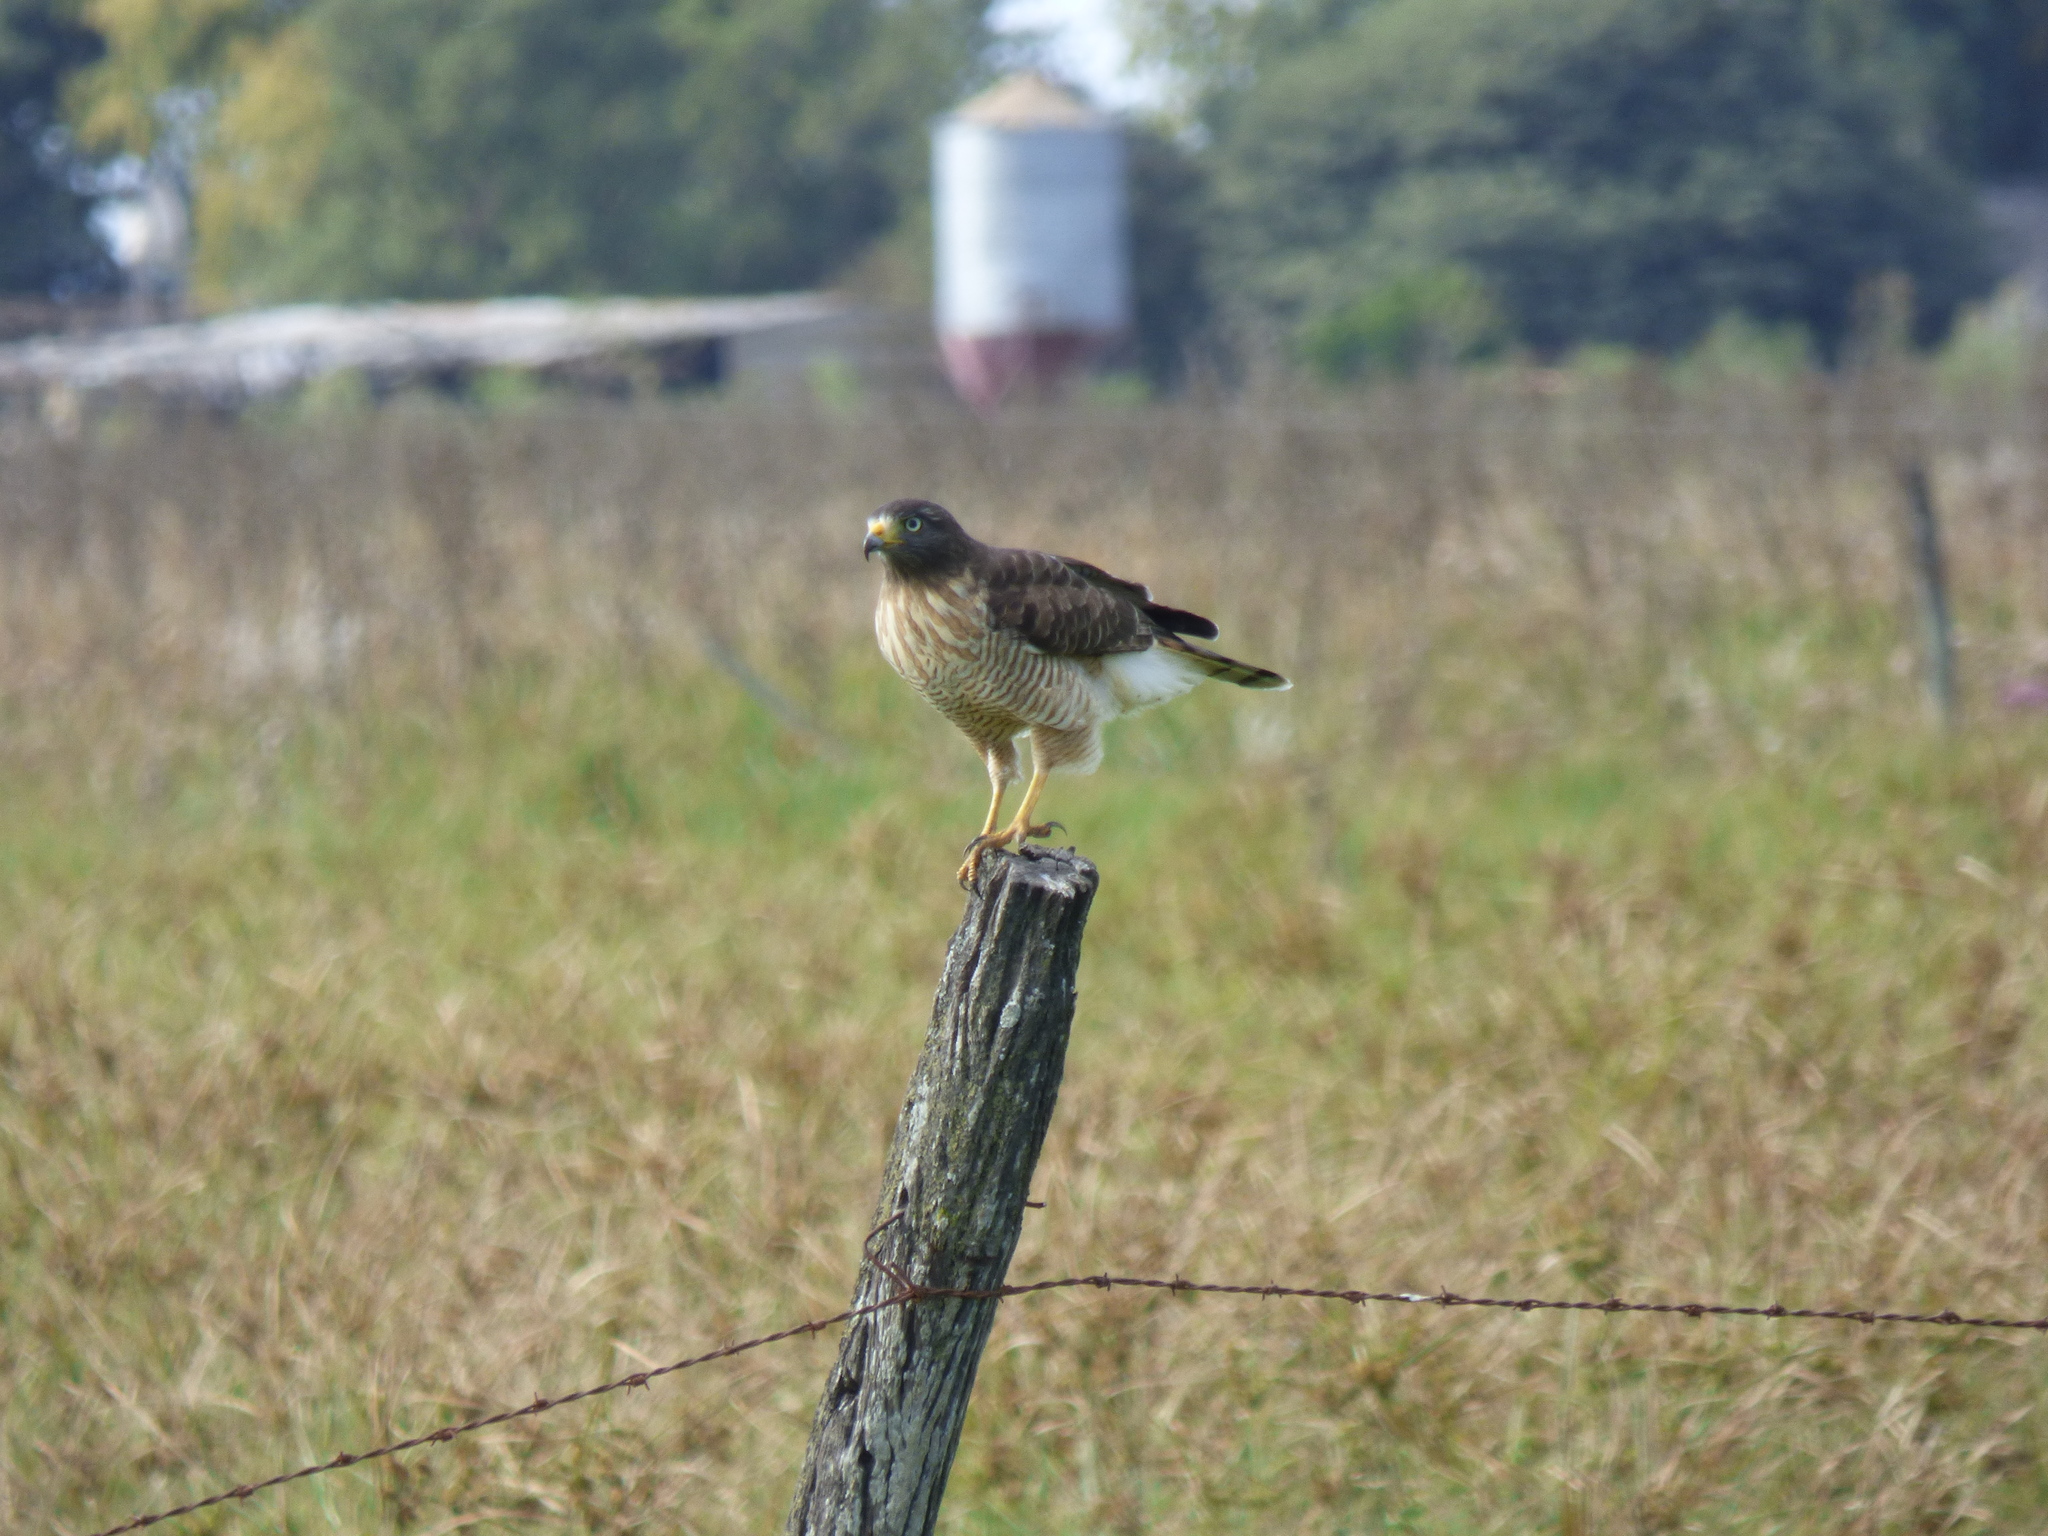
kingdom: Animalia
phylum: Chordata
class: Aves
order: Accipitriformes
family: Accipitridae
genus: Rupornis
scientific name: Rupornis magnirostris
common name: Roadside hawk
